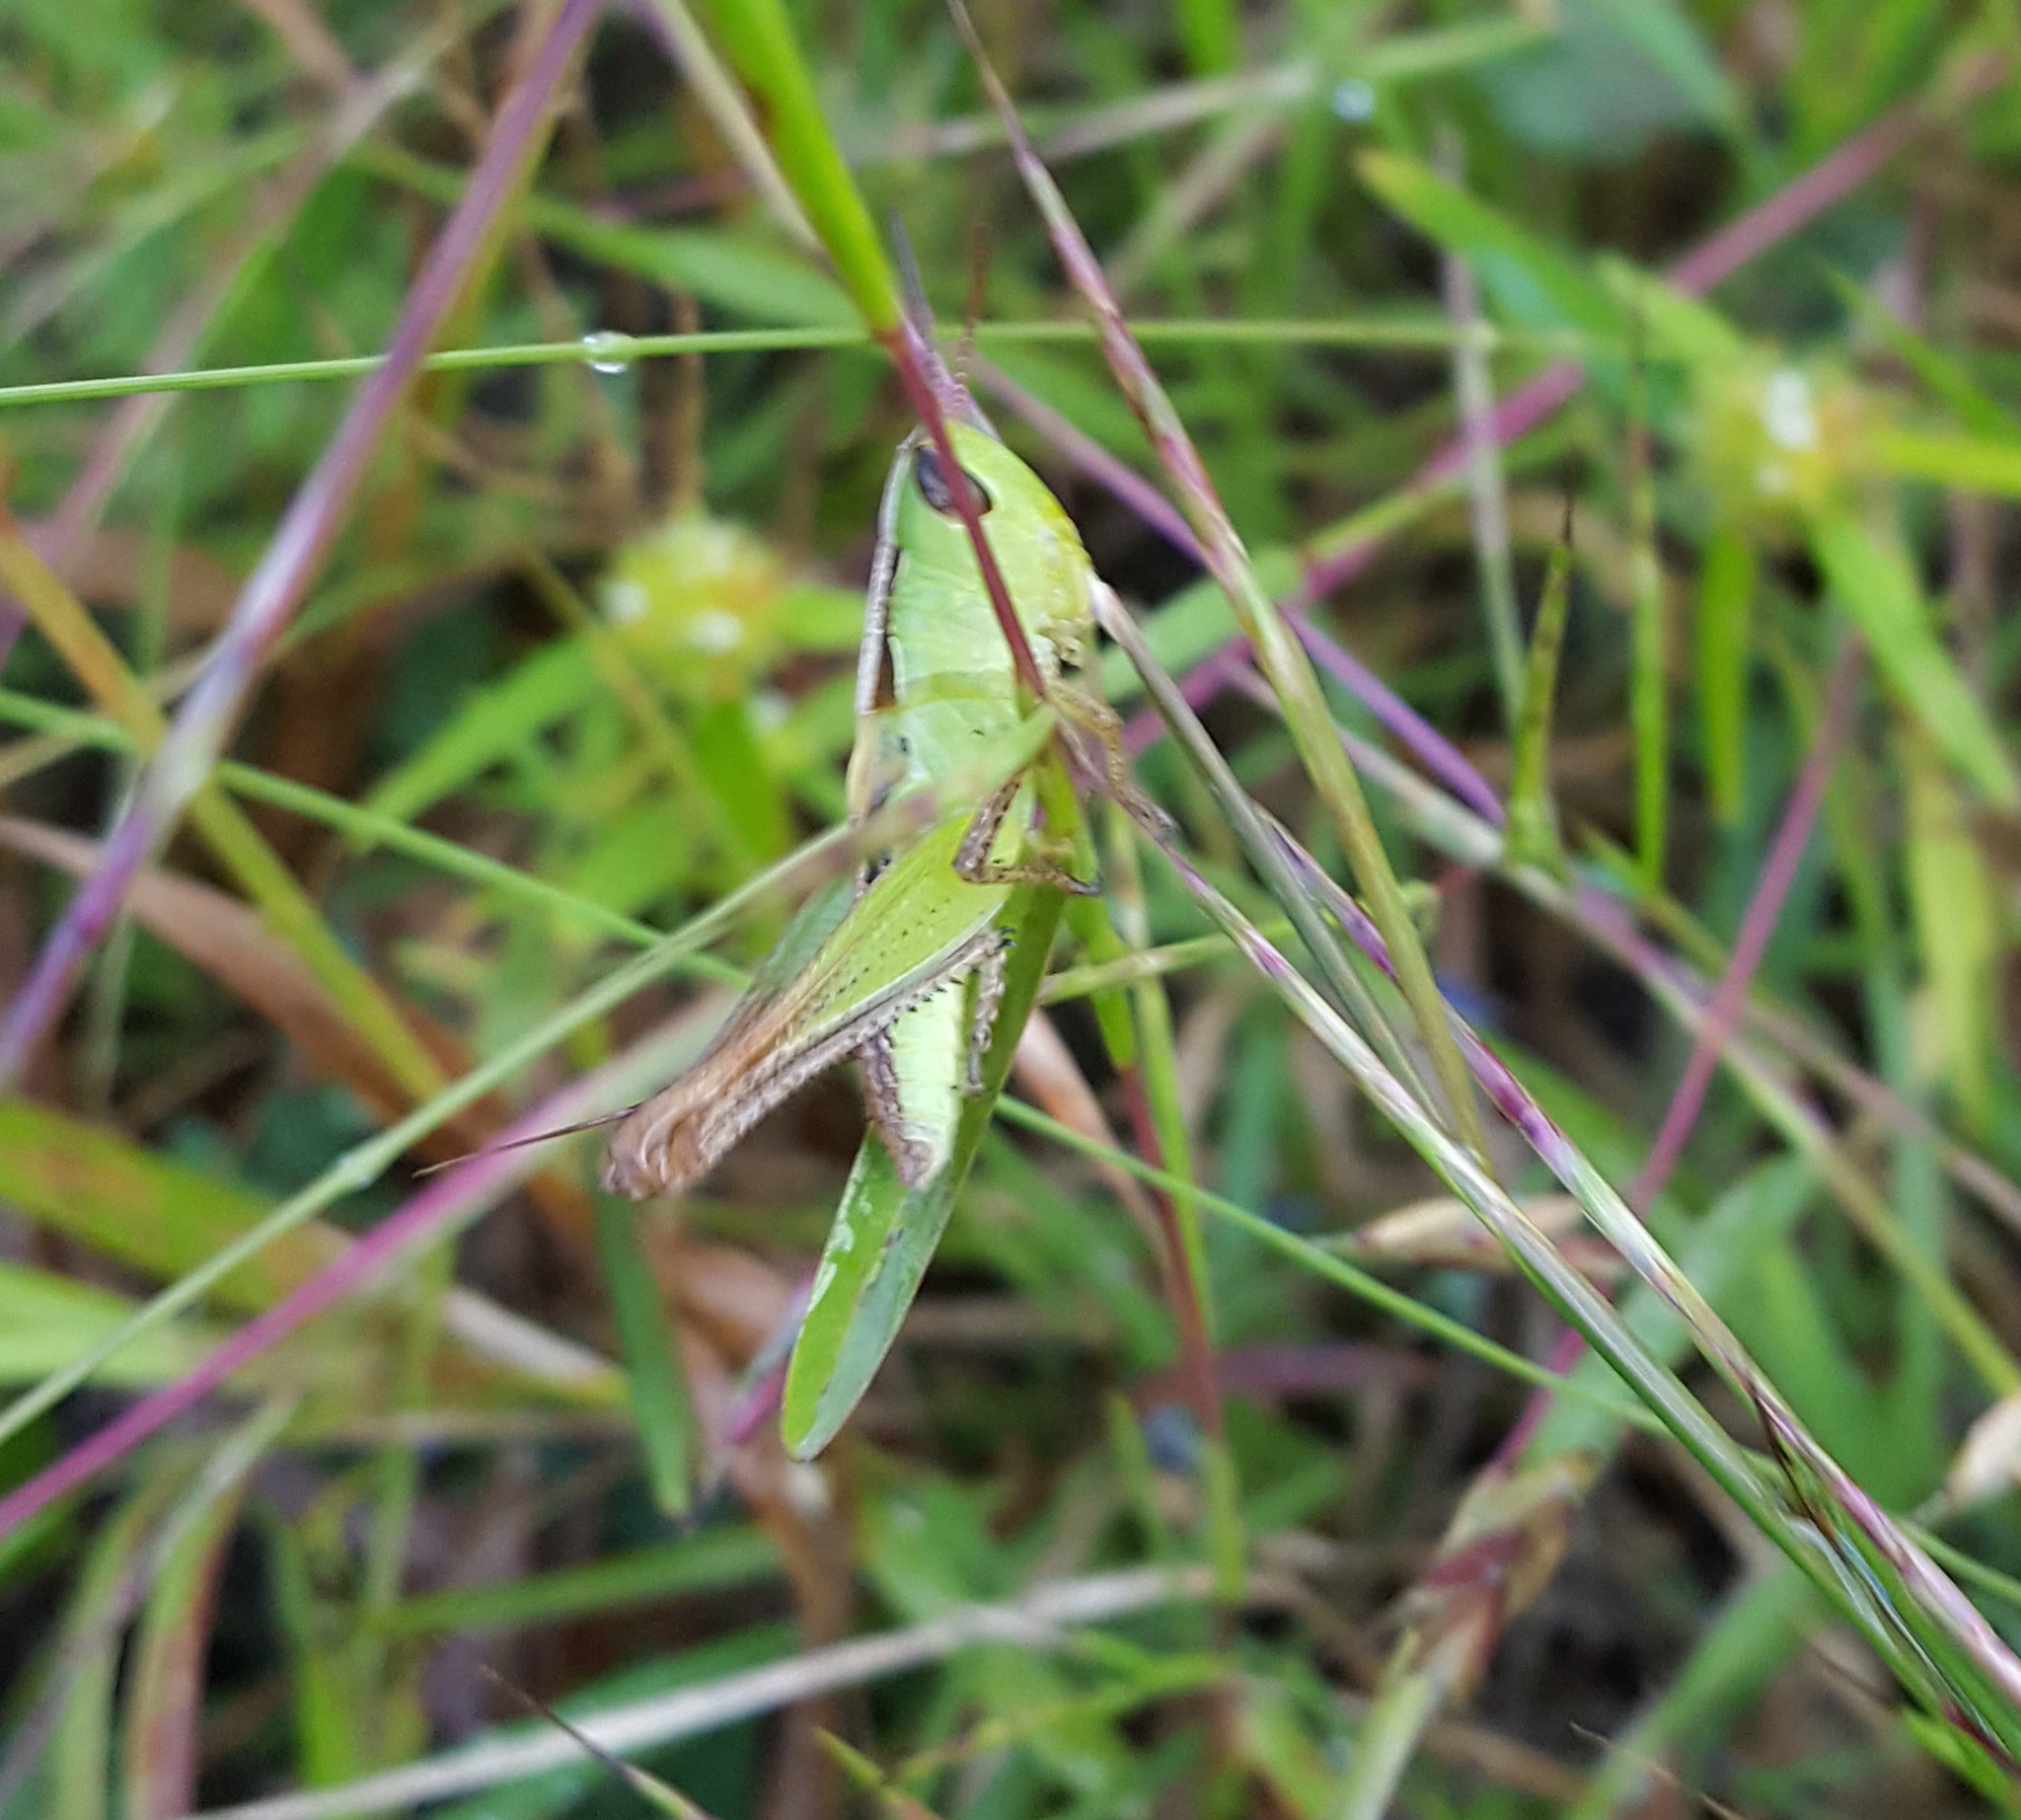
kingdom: Animalia
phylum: Arthropoda
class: Insecta
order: Orthoptera
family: Acrididae
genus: Rhammatocerus
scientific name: Rhammatocerus viatorius
